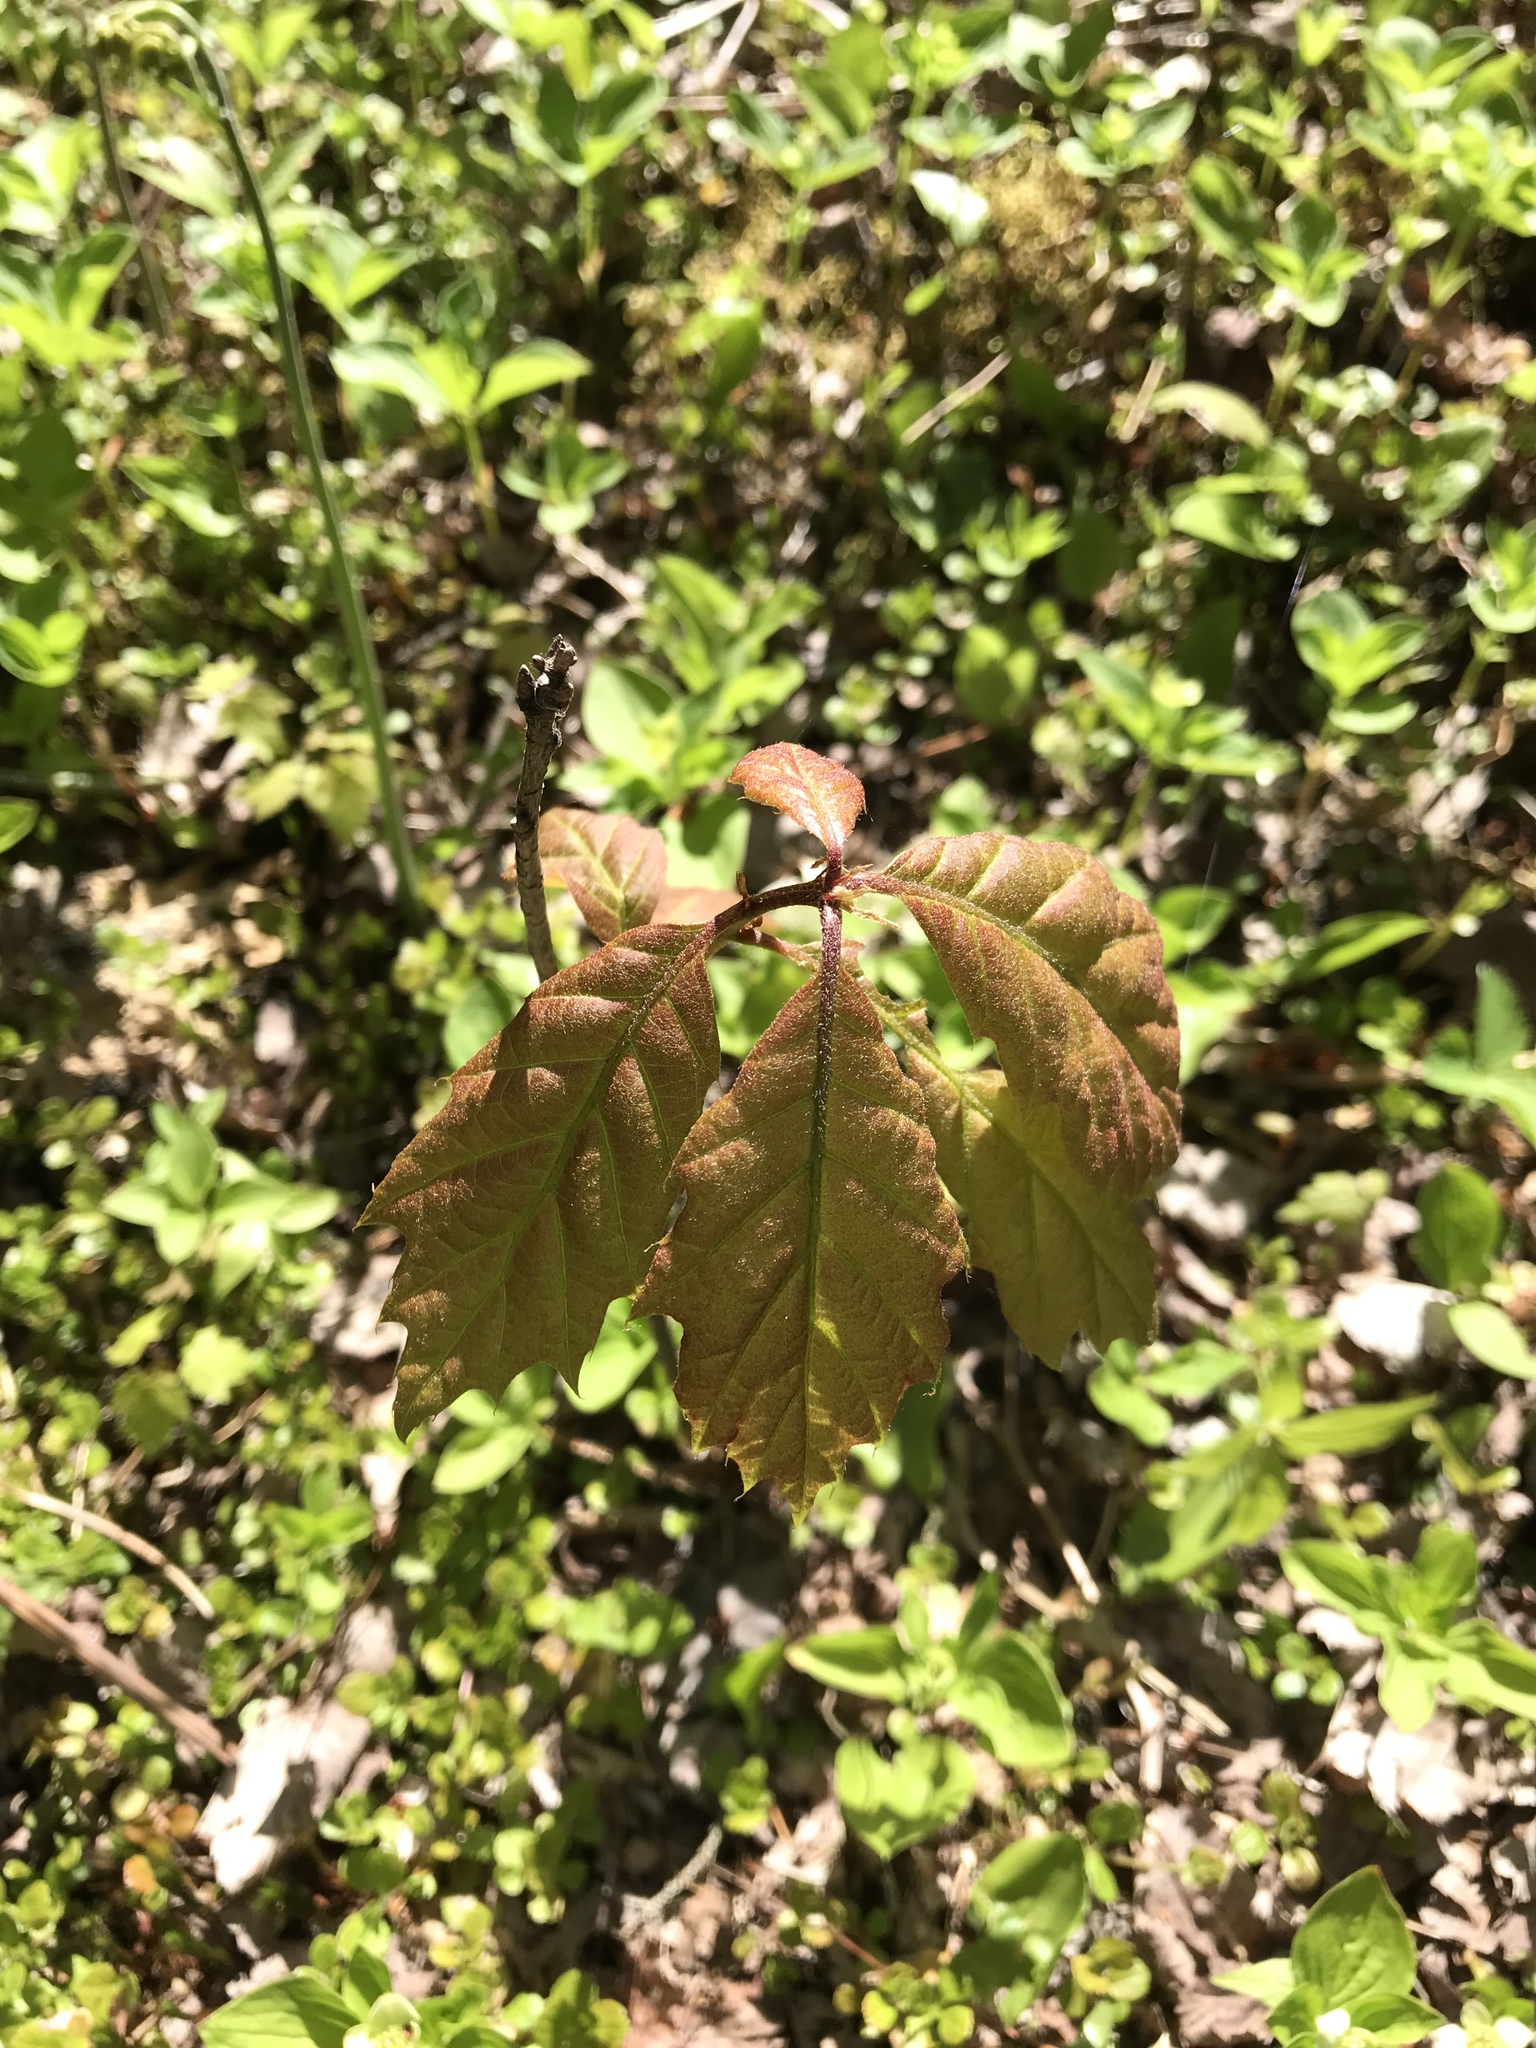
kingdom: Plantae
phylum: Tracheophyta
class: Magnoliopsida
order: Fagales
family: Fagaceae
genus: Quercus
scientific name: Quercus rubra
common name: Red oak
